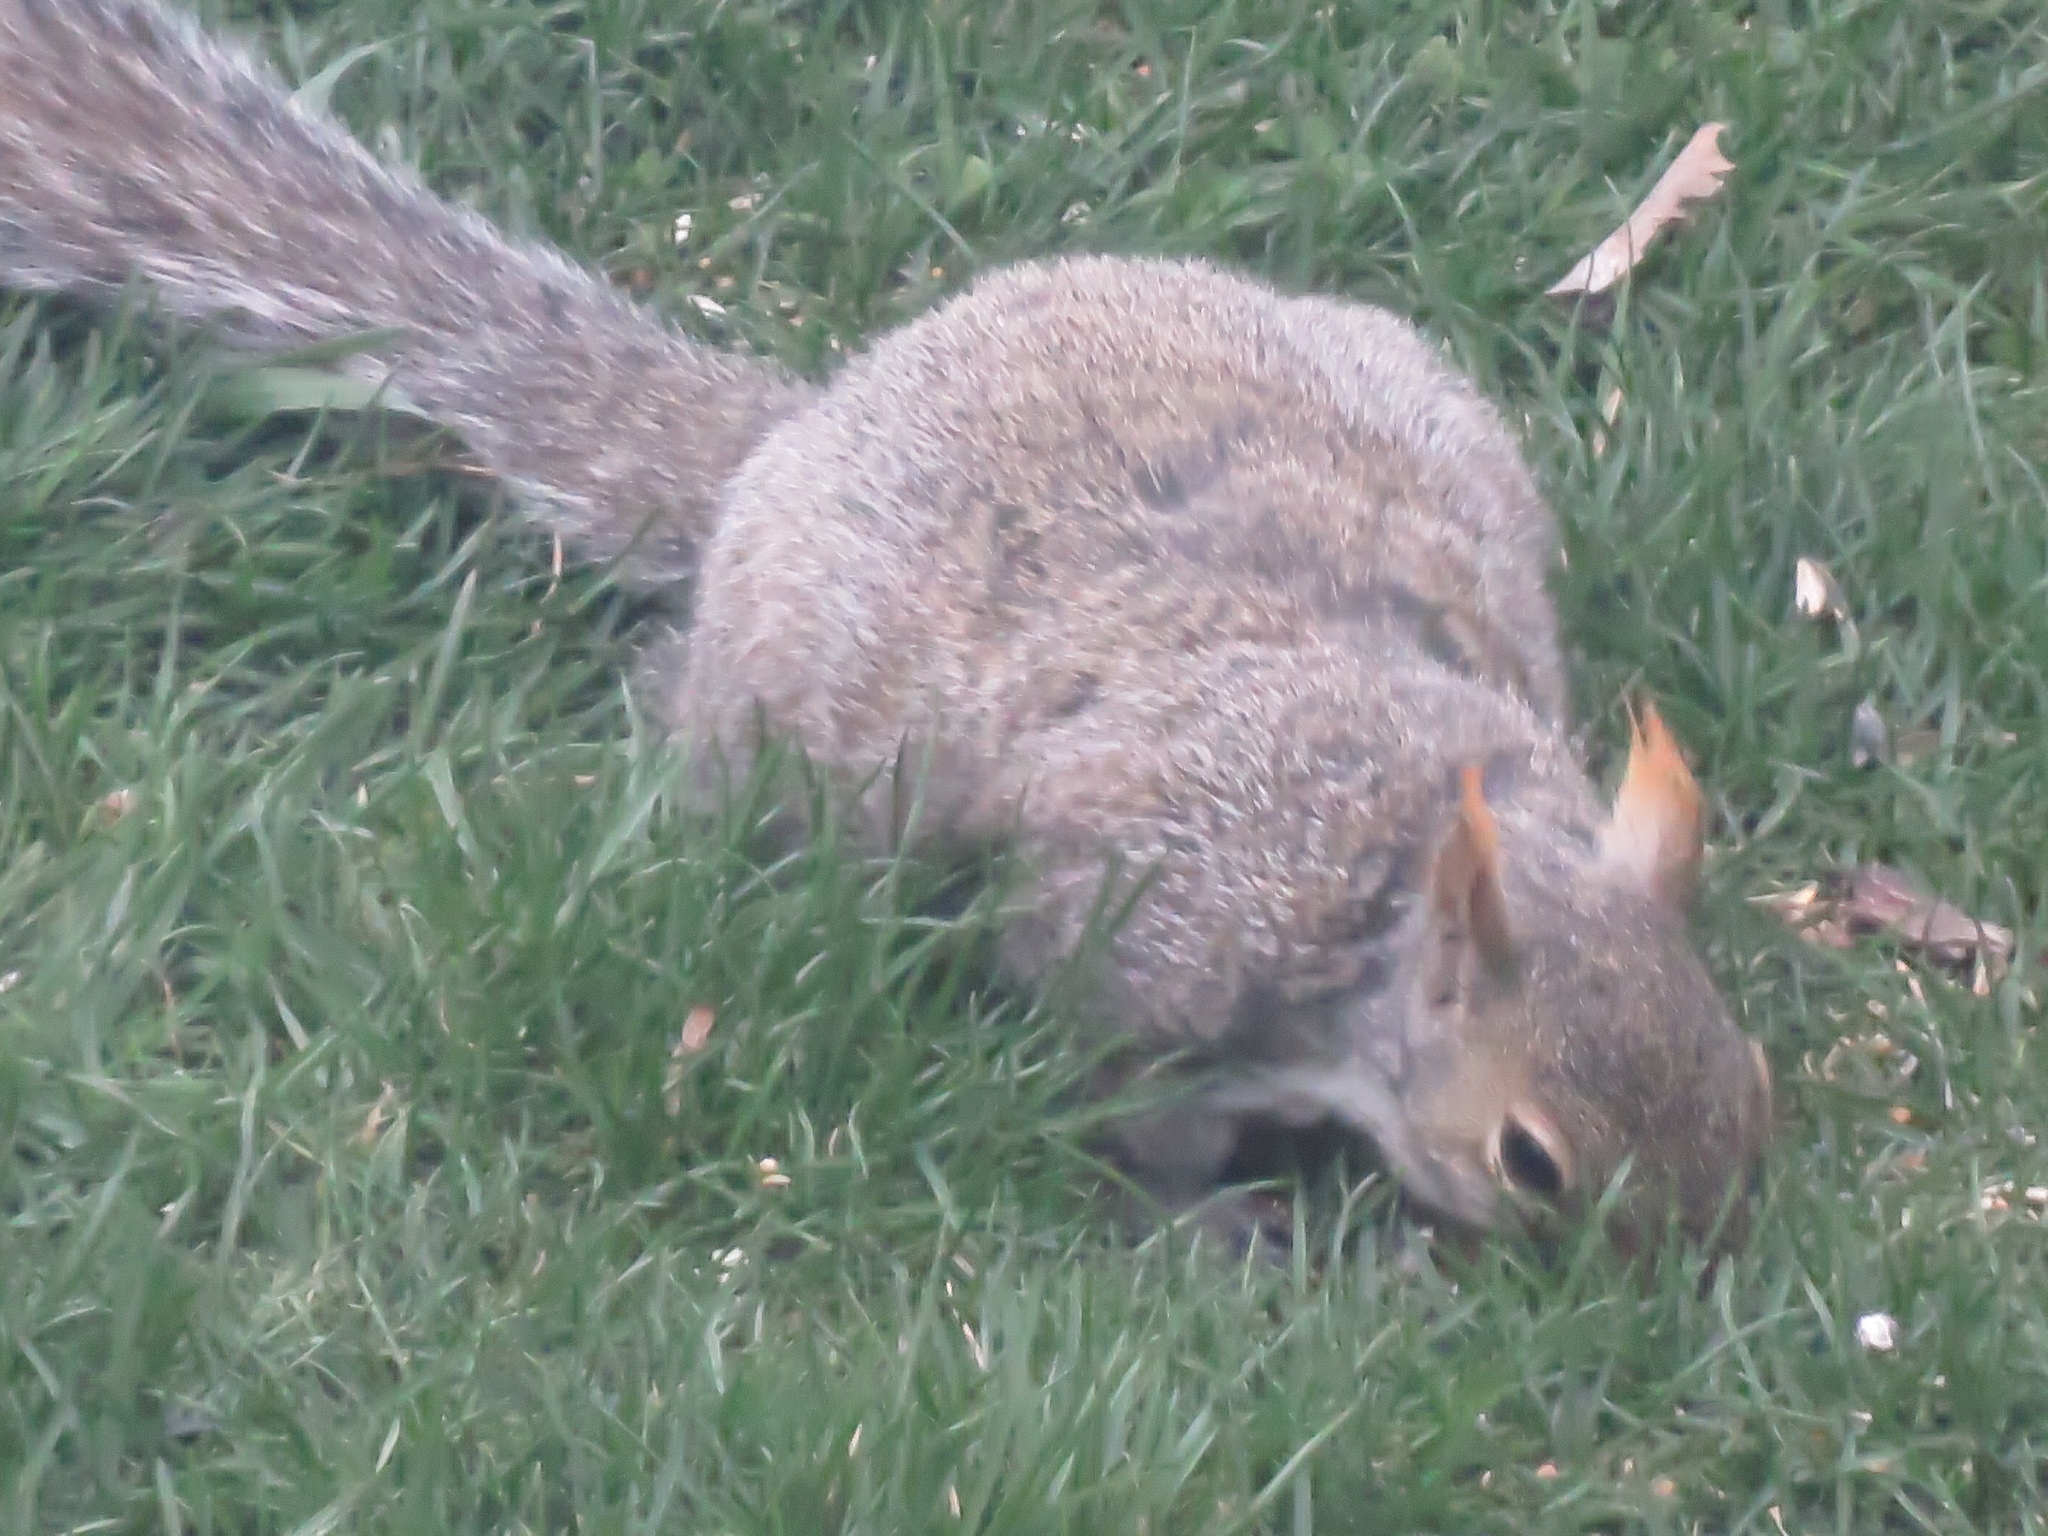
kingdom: Animalia
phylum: Chordata
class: Mammalia
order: Rodentia
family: Sciuridae
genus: Sciurus
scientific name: Sciurus carolinensis
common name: Eastern gray squirrel
